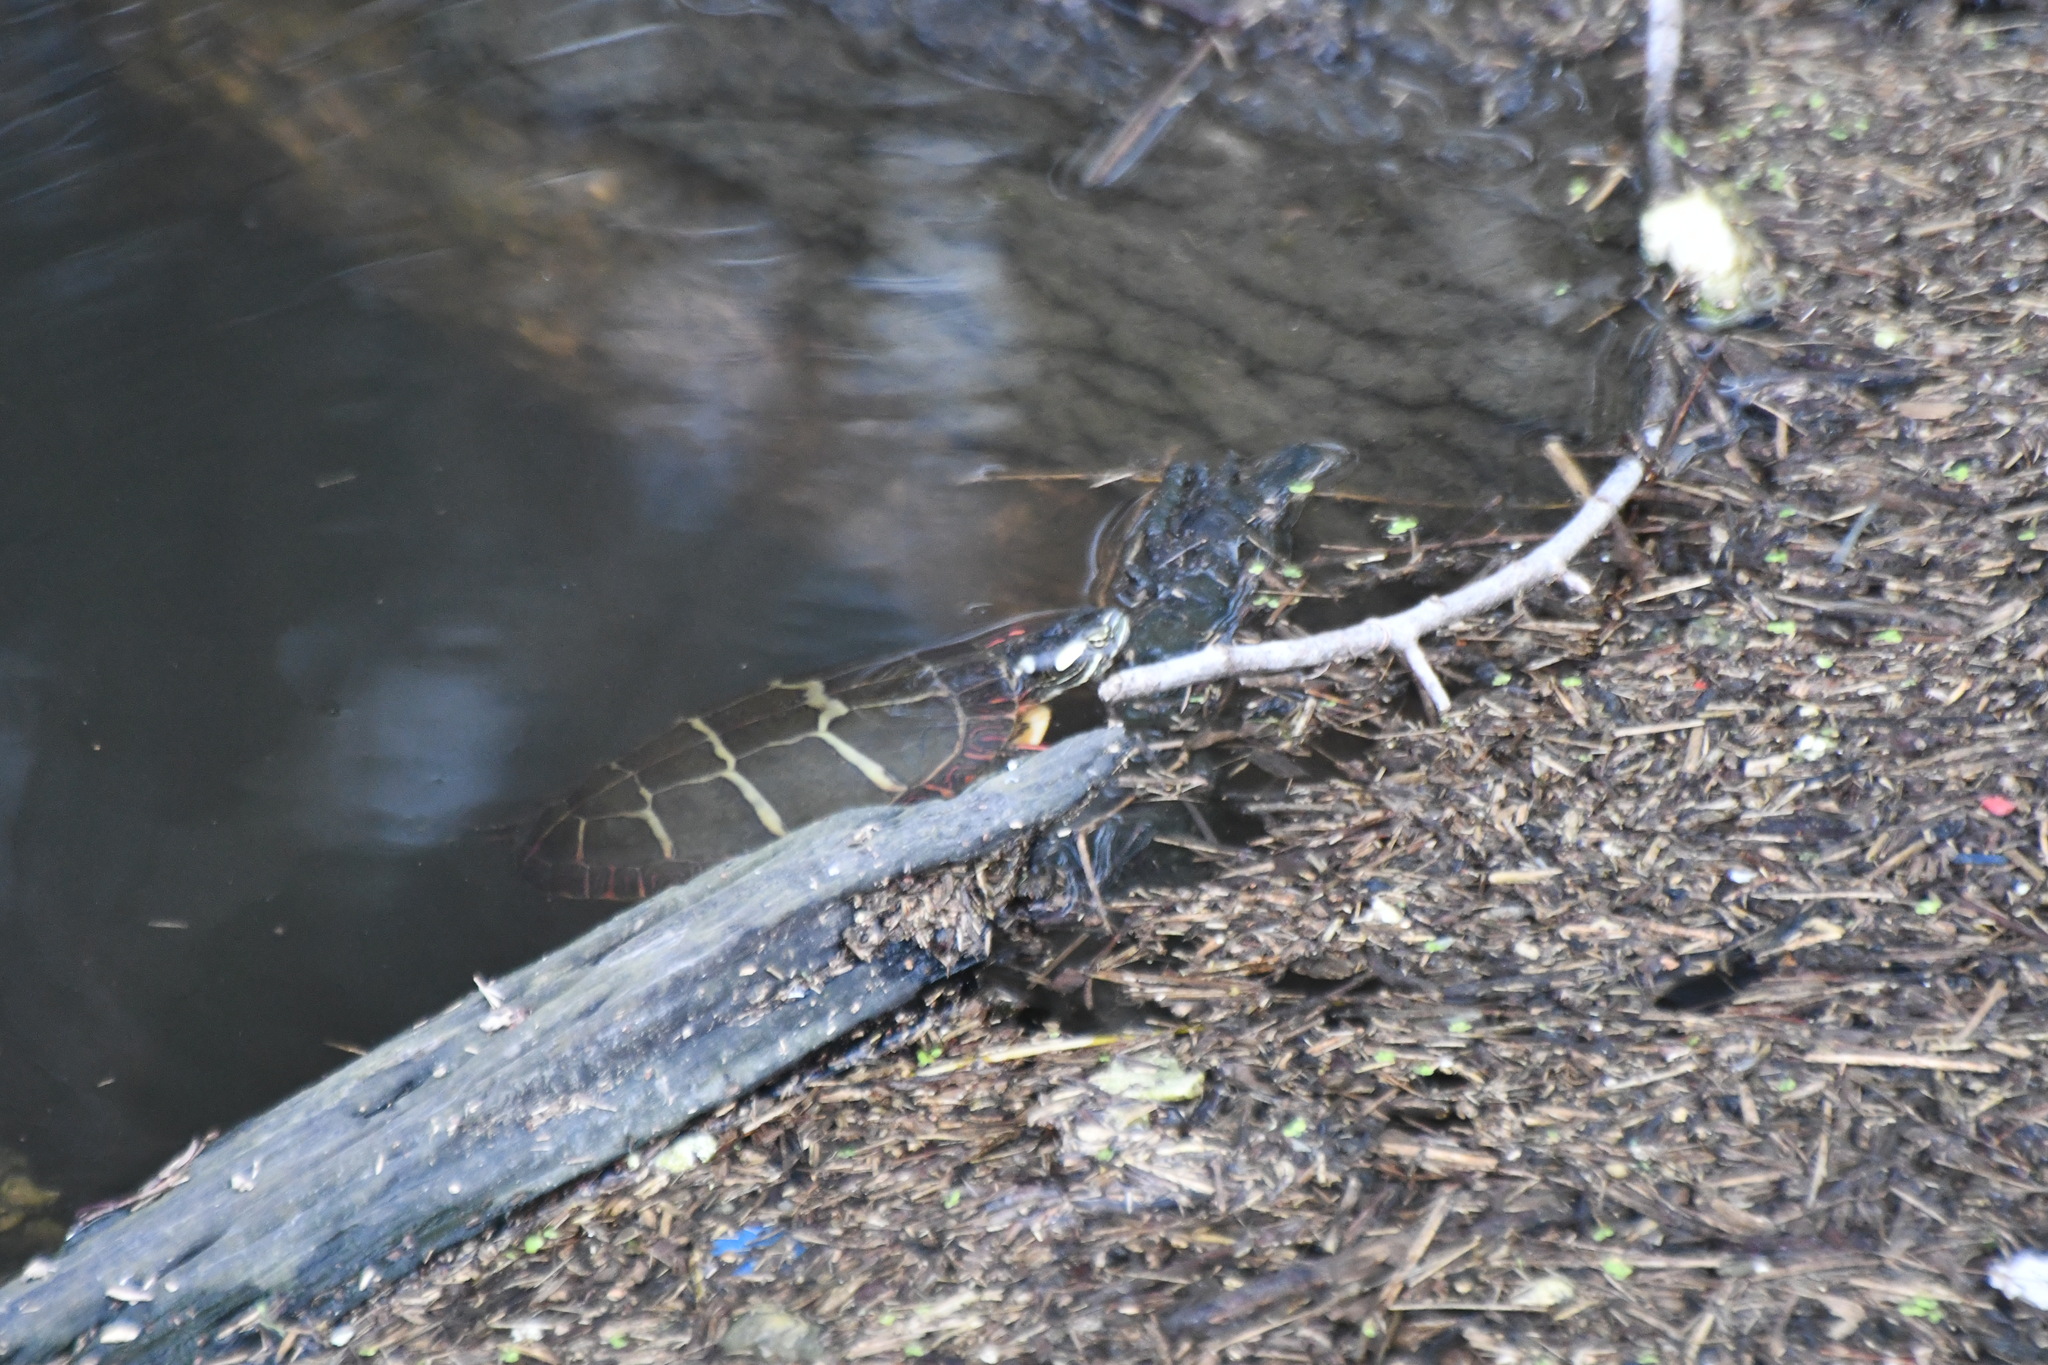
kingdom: Animalia
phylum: Chordata
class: Testudines
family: Emydidae
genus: Chrysemys
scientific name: Chrysemys picta
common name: Painted turtle
